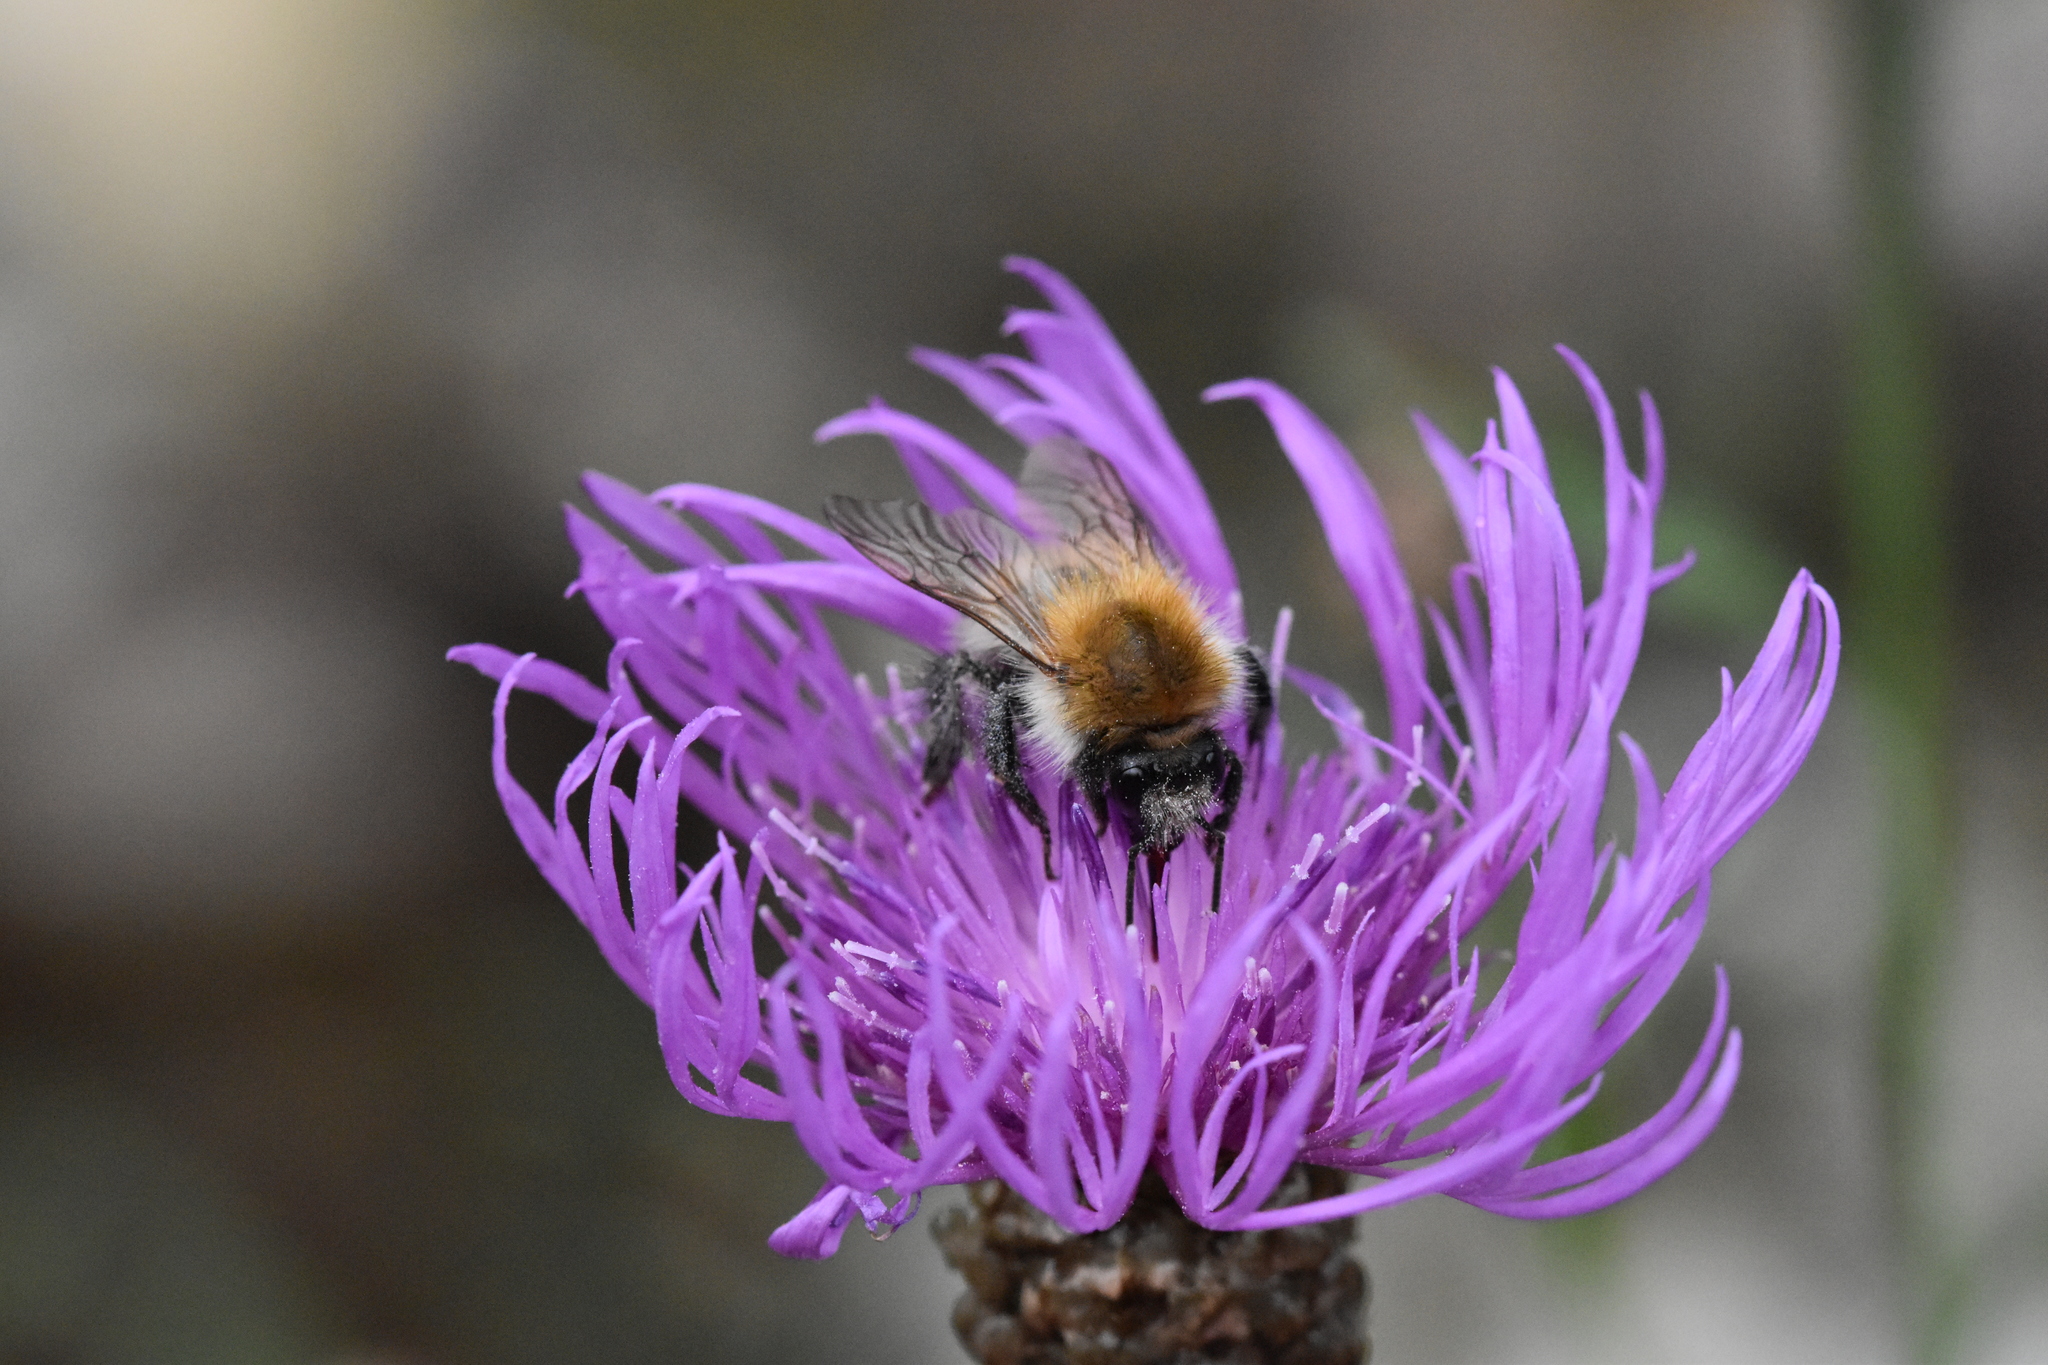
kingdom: Animalia
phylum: Arthropoda
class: Insecta
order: Hymenoptera
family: Apidae
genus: Bombus
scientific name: Bombus pascuorum
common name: Common carder bee
